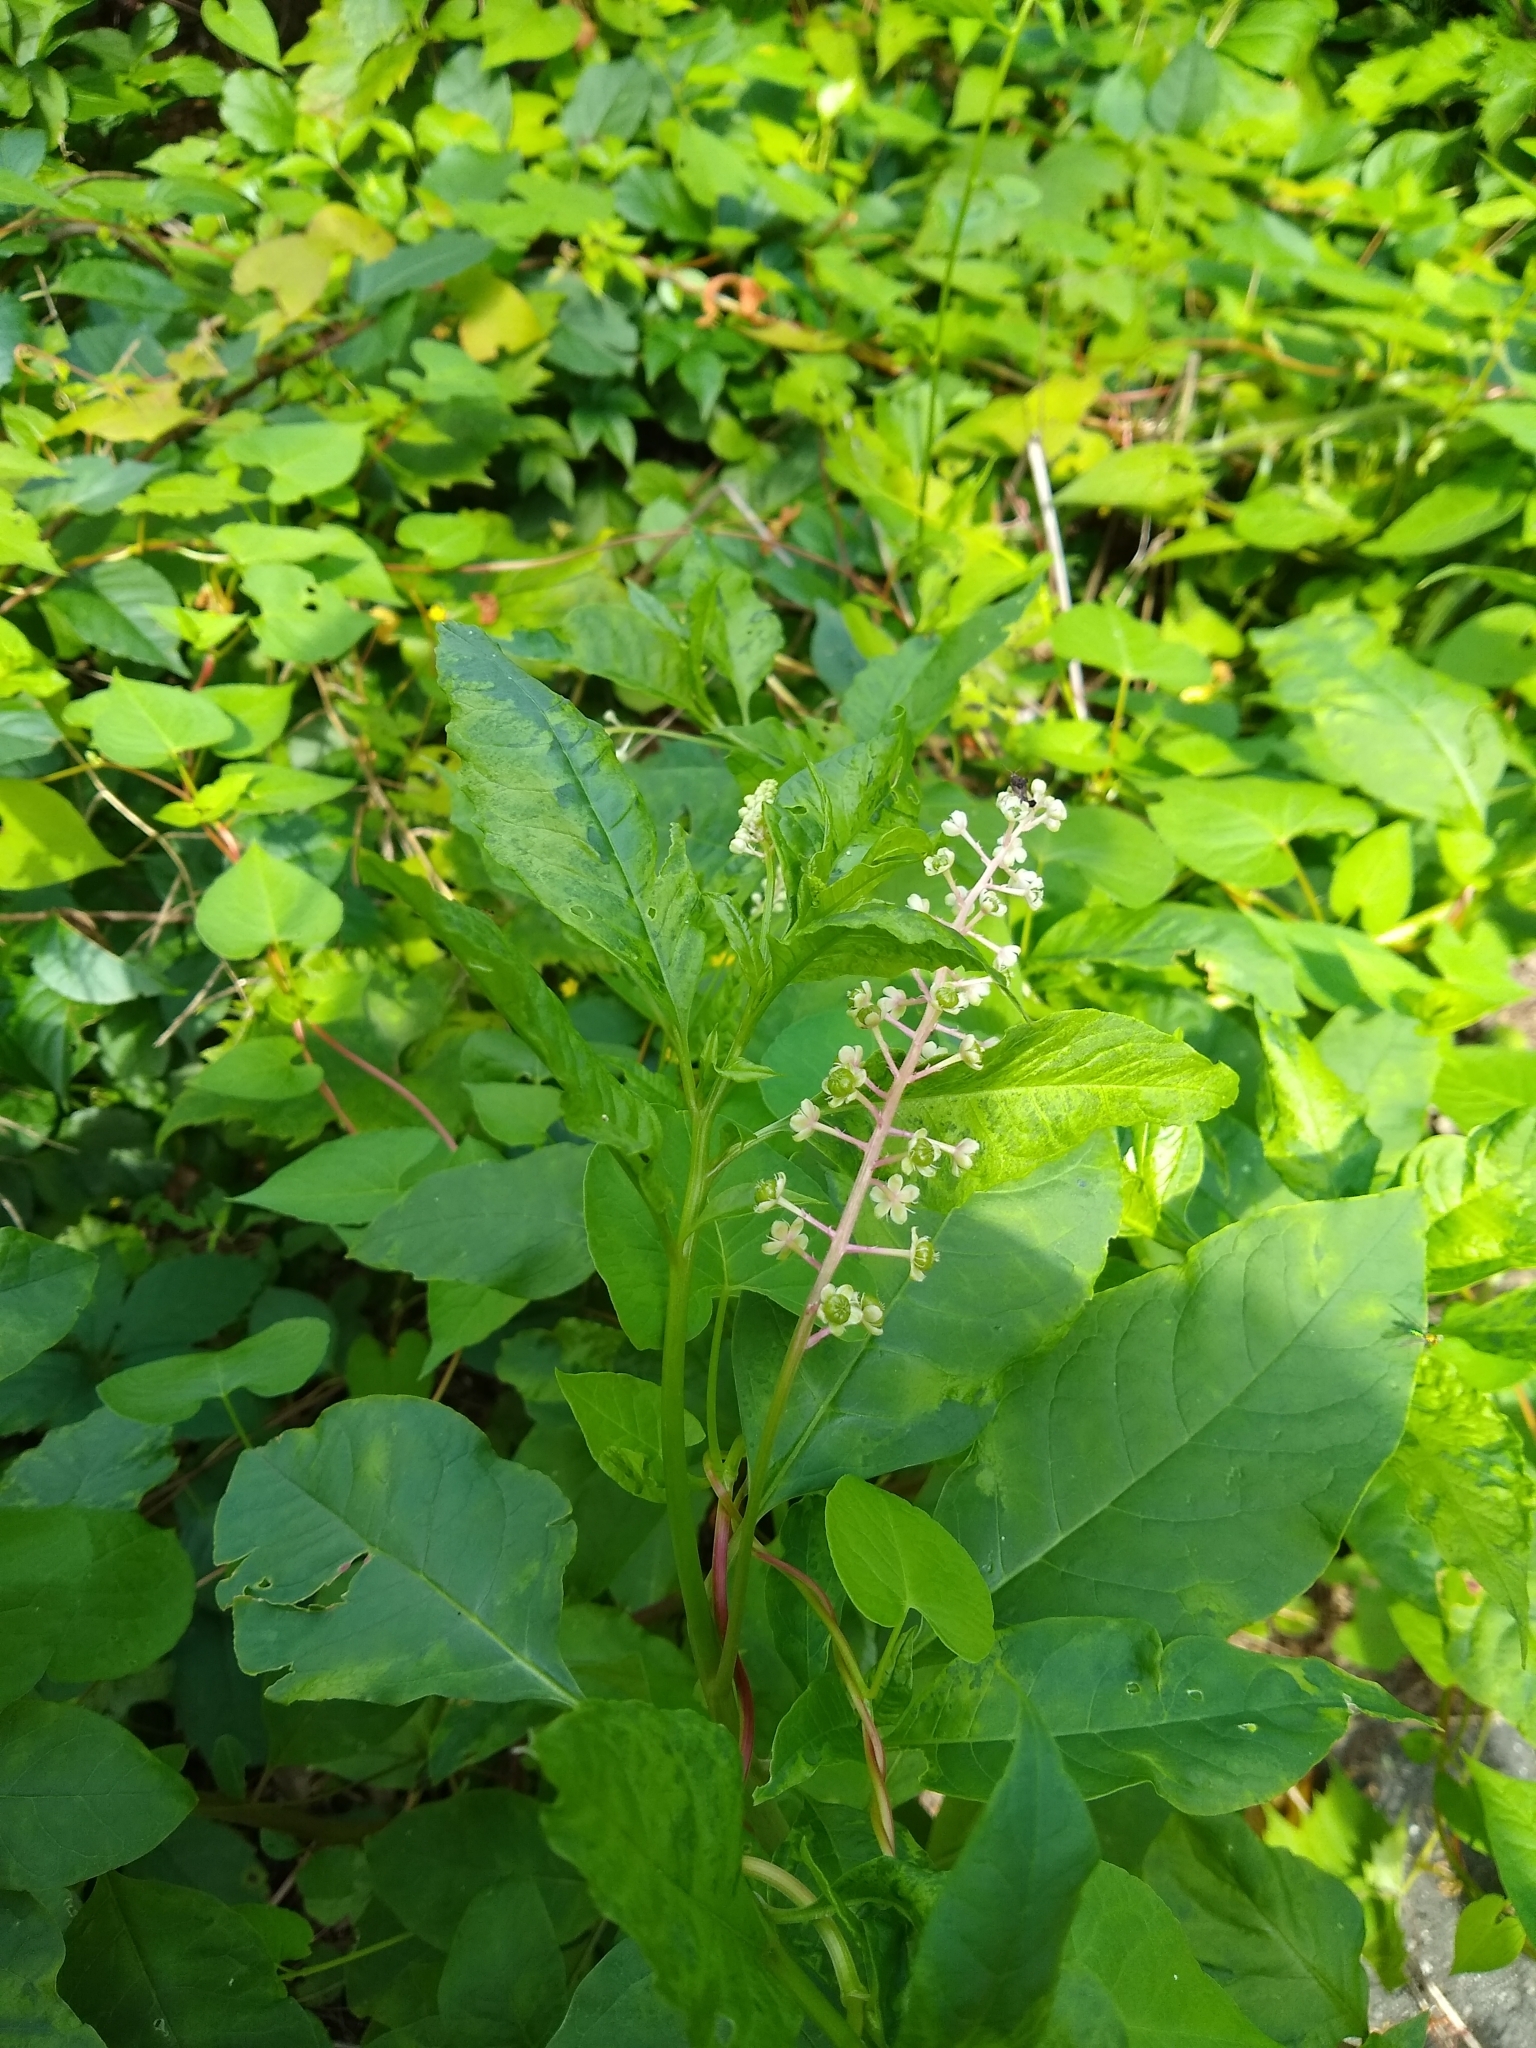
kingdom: Viruses
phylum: Pisuviricota
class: Stelpaviricetes
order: Patatavirales
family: Potyviridae
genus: Potyvirus
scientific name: Potyvirus Pokeweed mosaic virus
